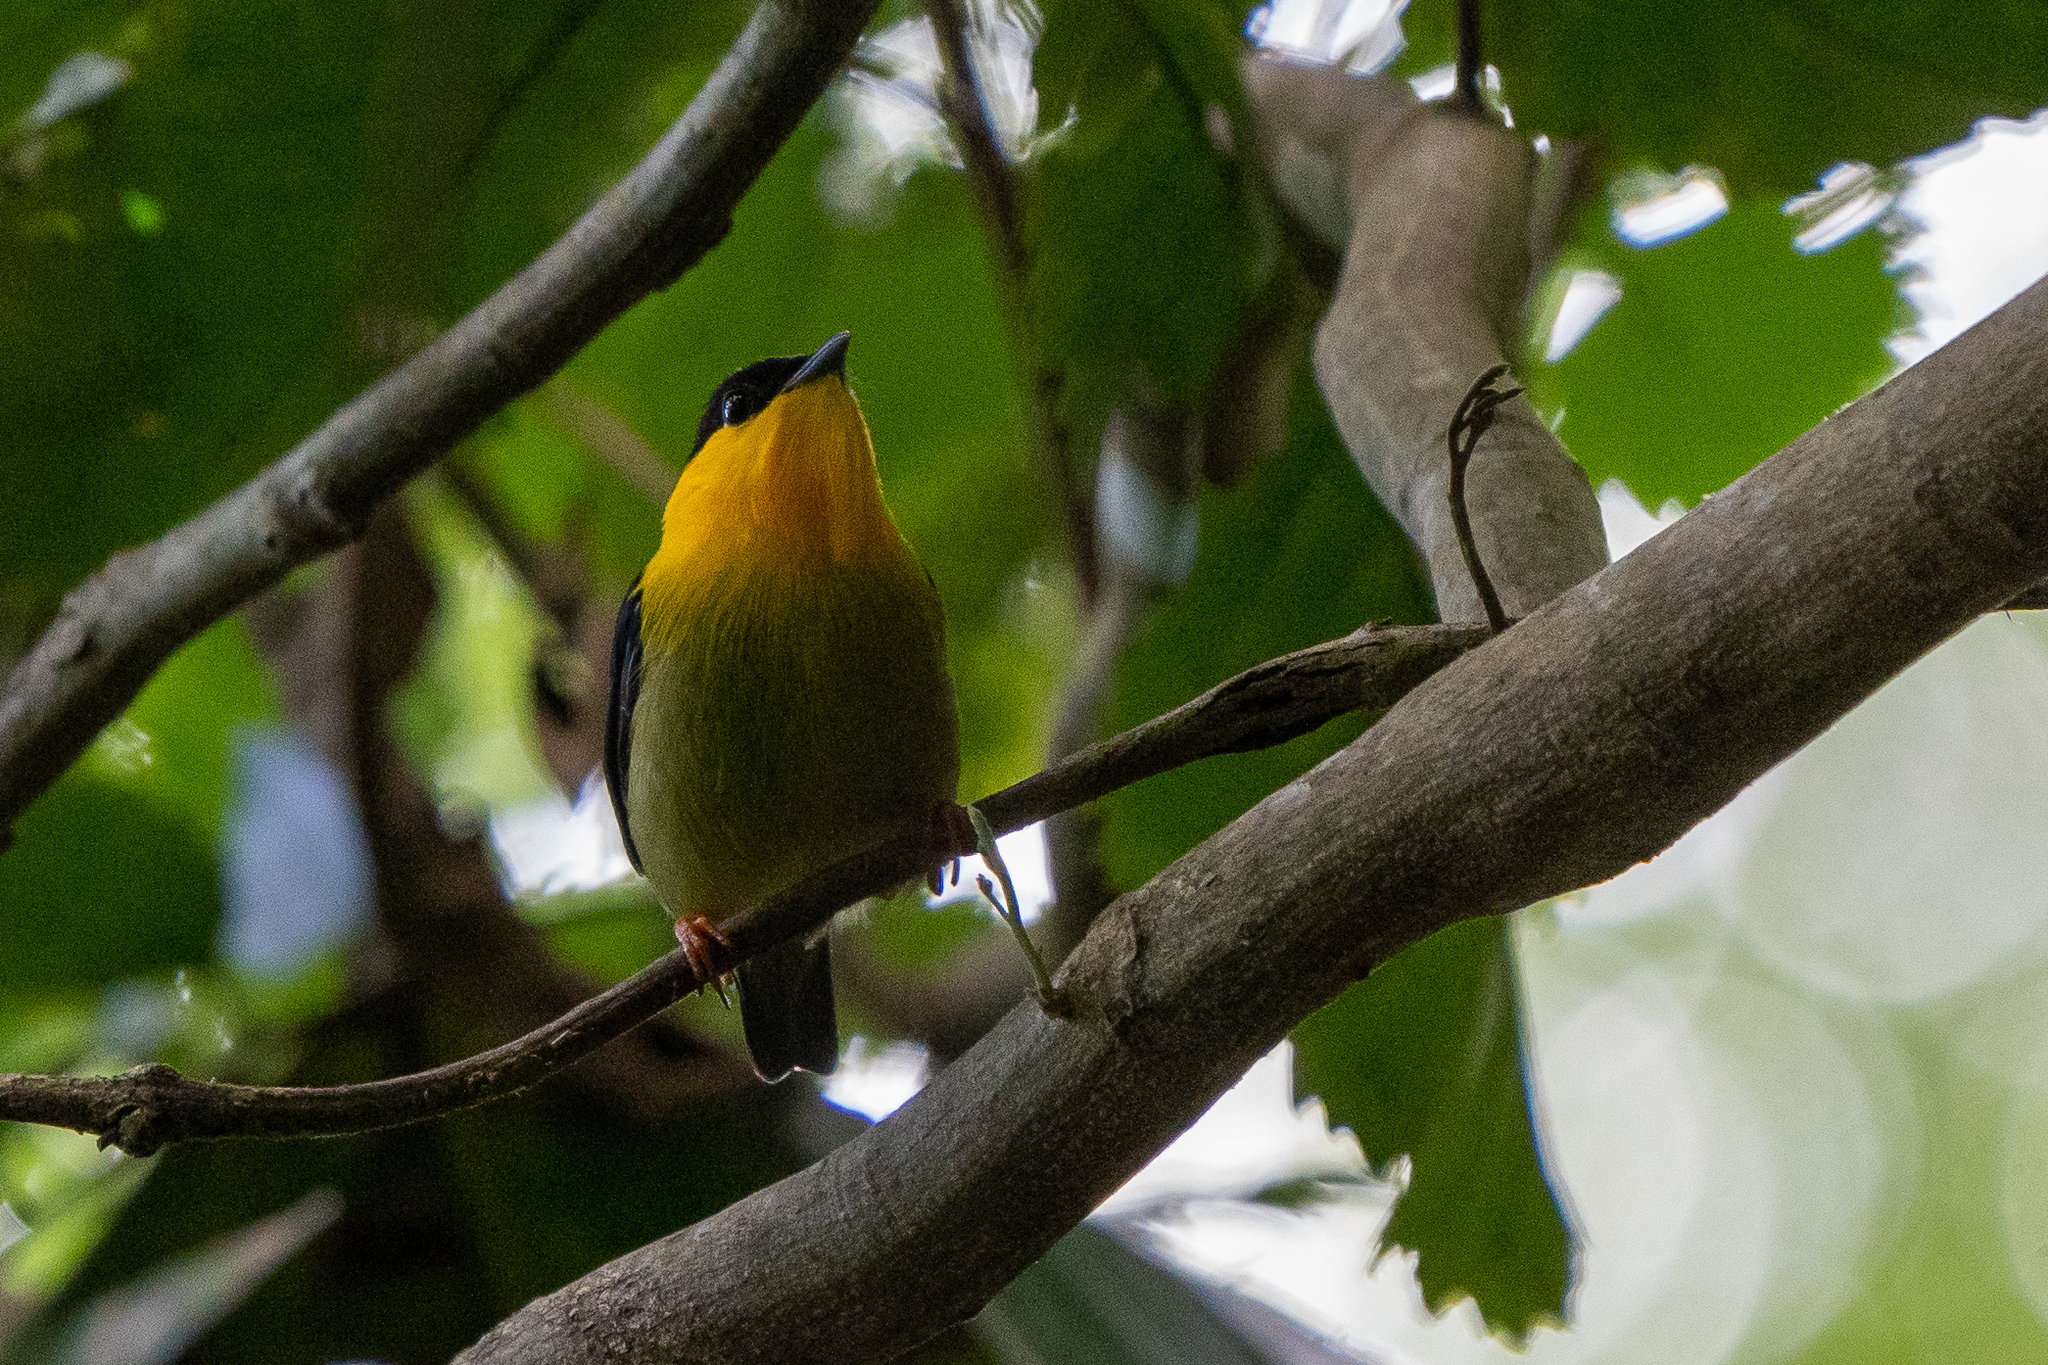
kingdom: Animalia
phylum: Chordata
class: Aves
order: Passeriformes
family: Pipridae
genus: Manacus
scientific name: Manacus vitellinus
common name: Golden-collared manakin
